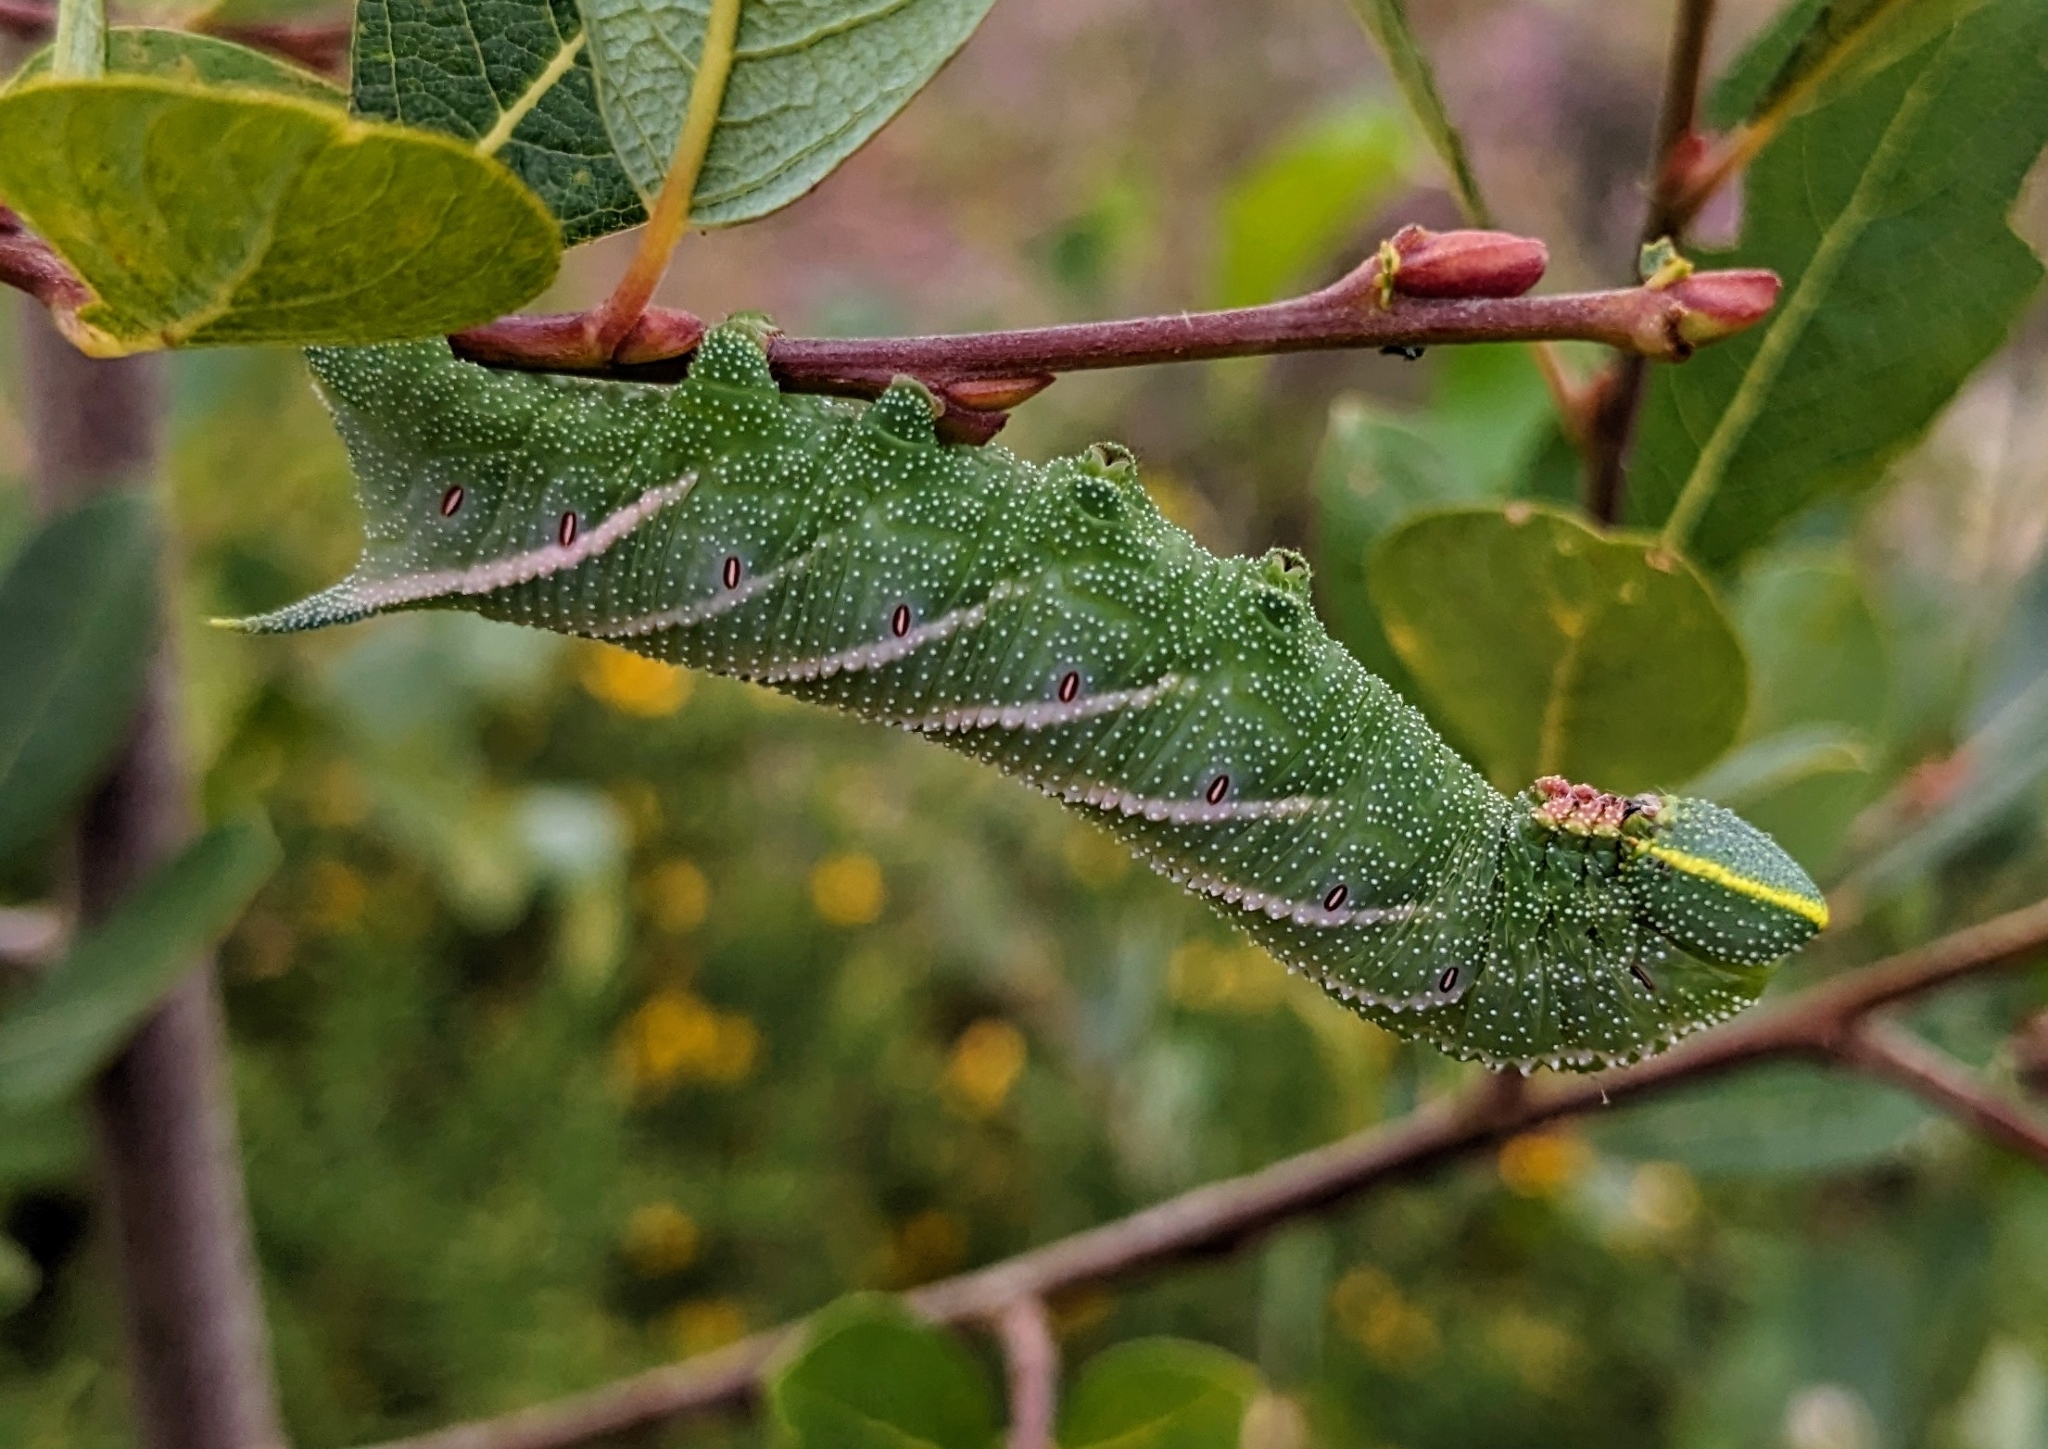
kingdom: Animalia
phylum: Arthropoda
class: Insecta
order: Lepidoptera
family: Sphingidae
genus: Smerinthus
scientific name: Smerinthus ocellata
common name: Eyed hawk-moth
